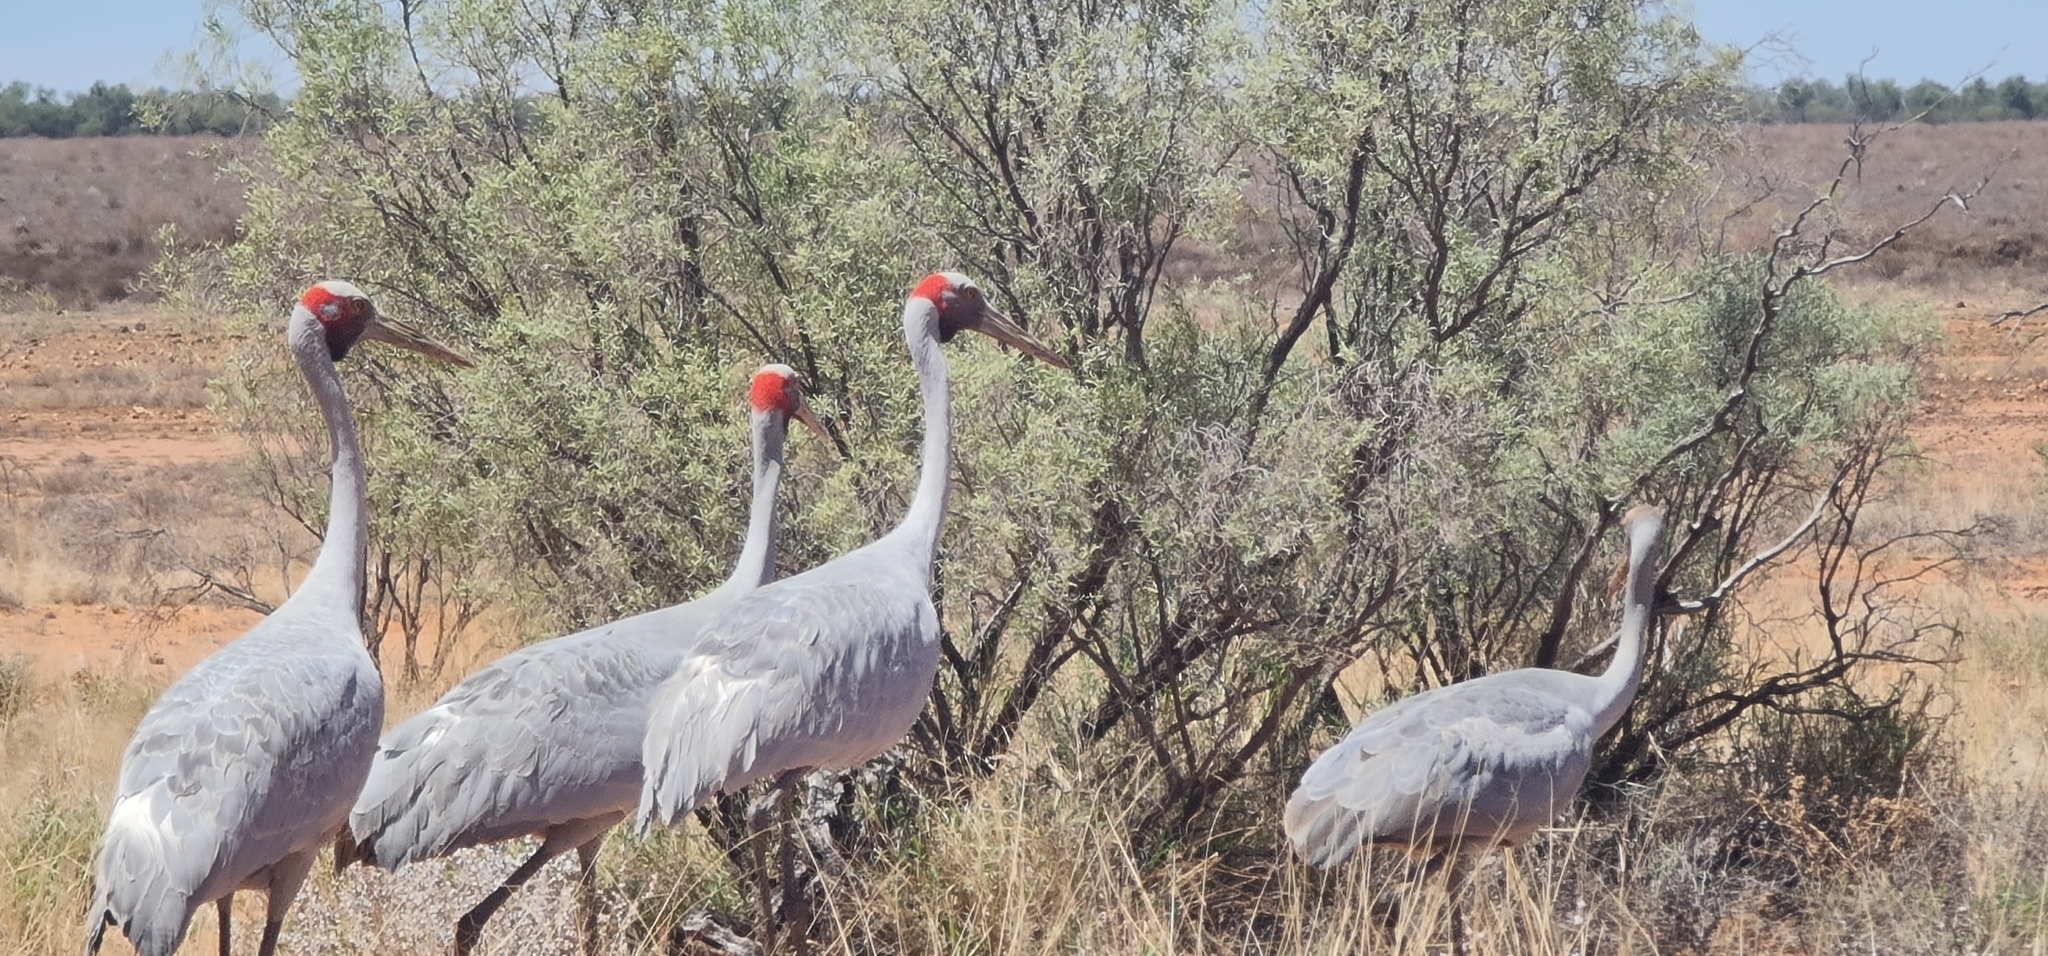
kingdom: Animalia
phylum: Chordata
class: Aves
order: Gruiformes
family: Gruidae
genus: Grus
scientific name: Grus rubicunda
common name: Brolga
